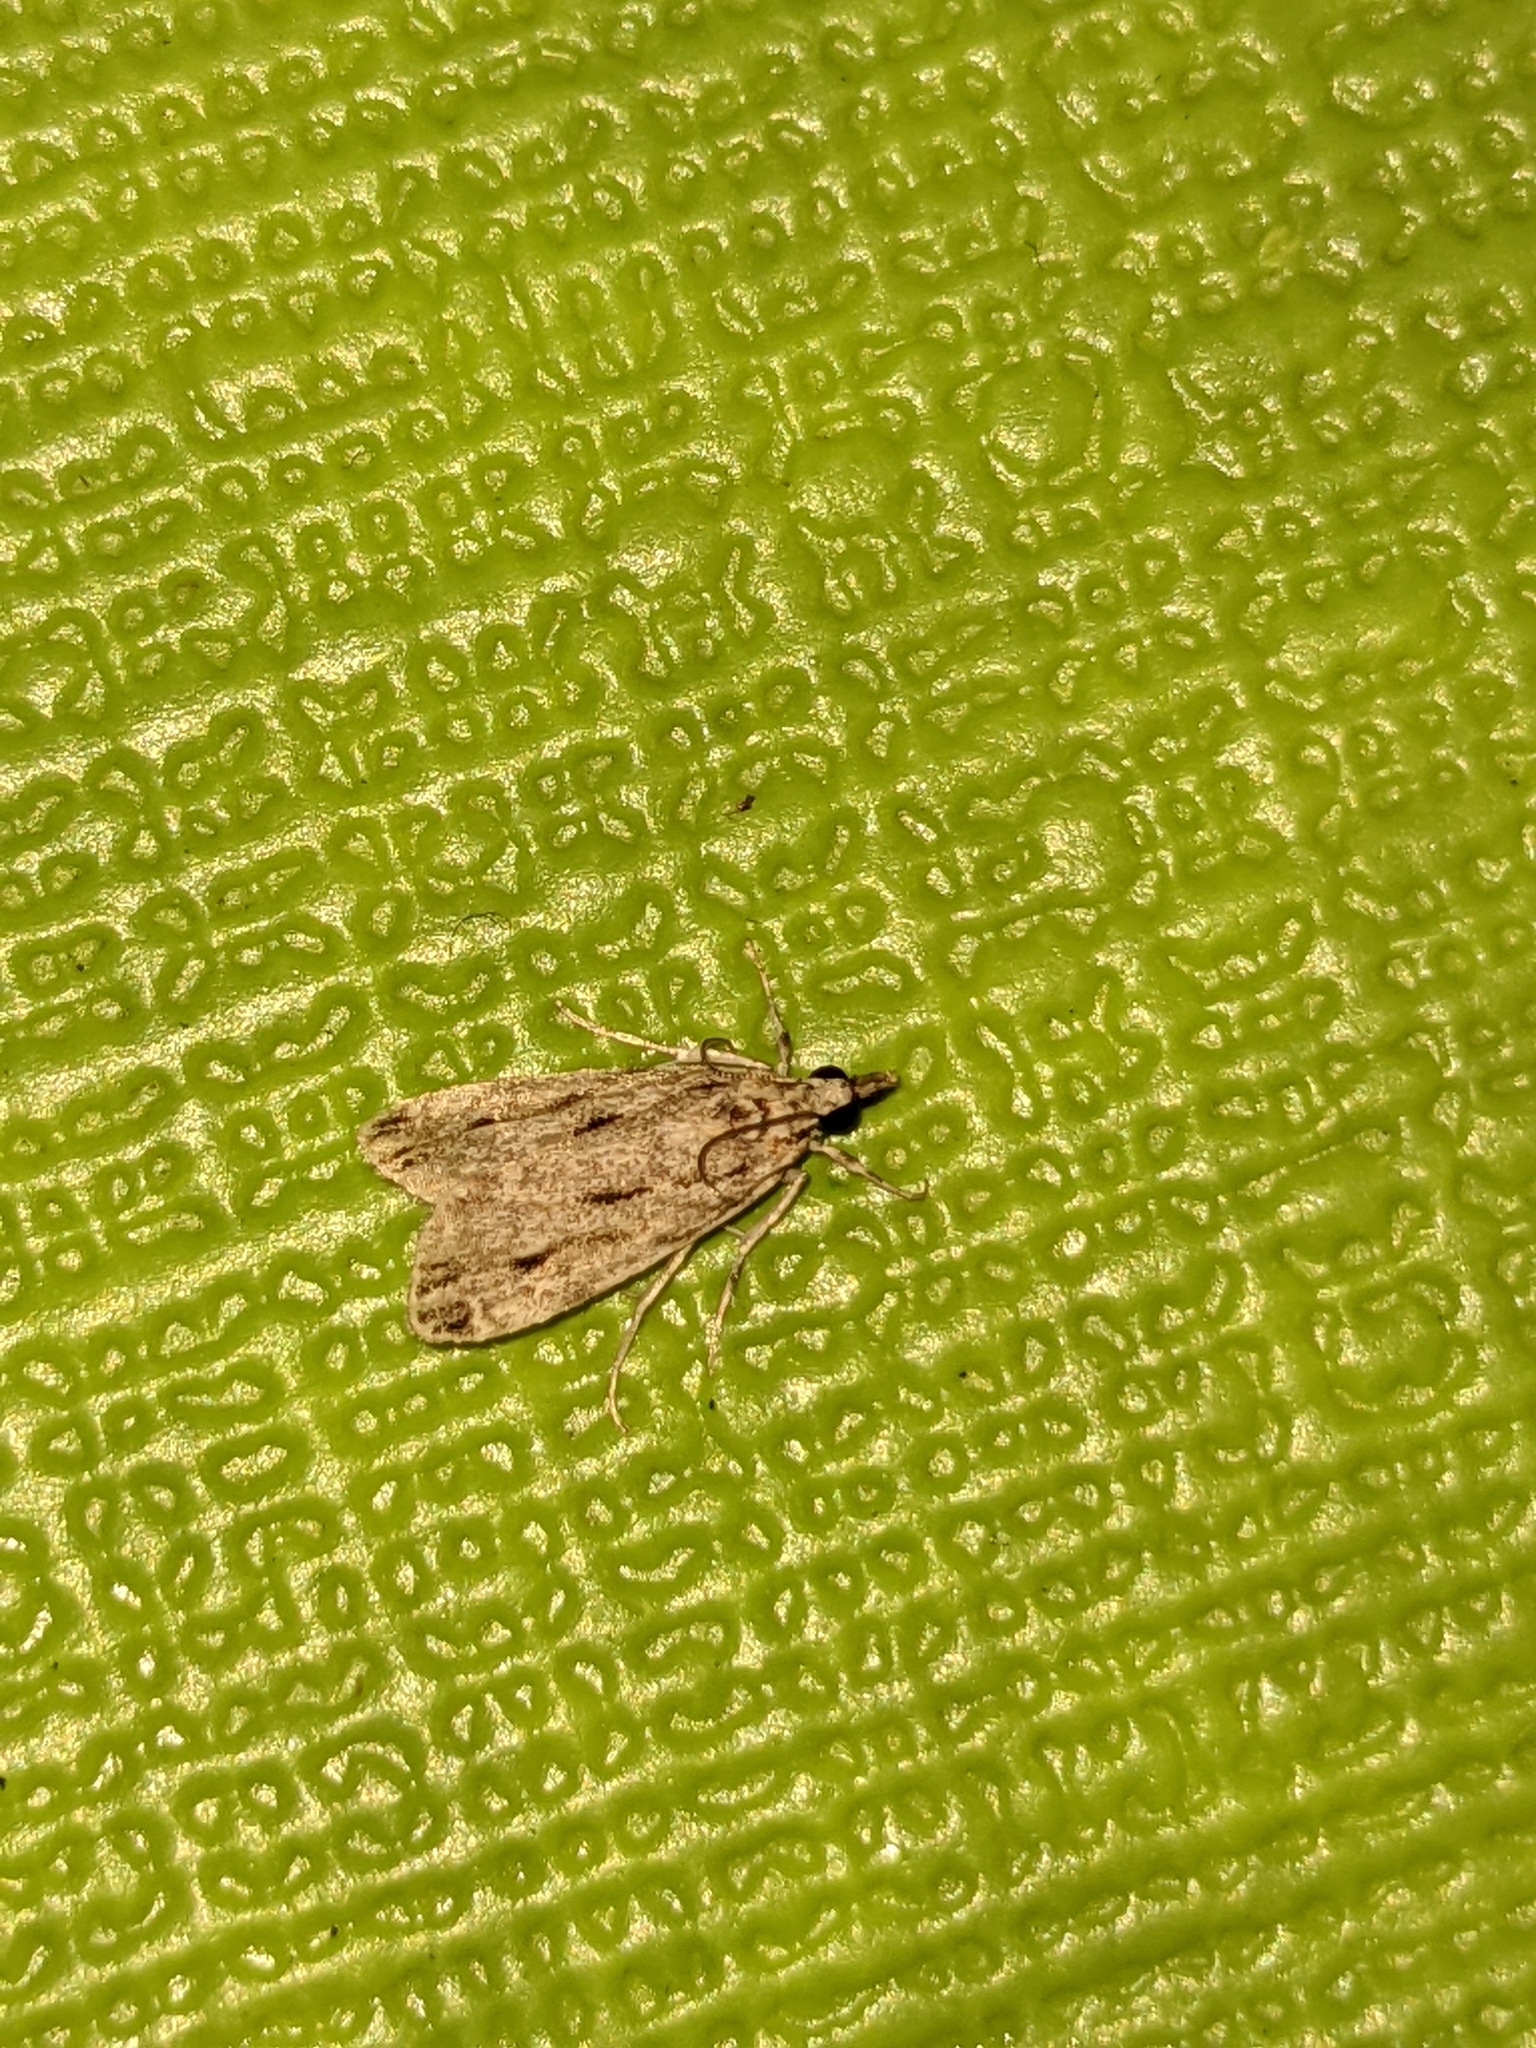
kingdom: Animalia
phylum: Arthropoda
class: Insecta
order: Lepidoptera
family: Crambidae
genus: Eudonia
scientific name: Eudonia strigalis
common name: Striped eudonia moth
